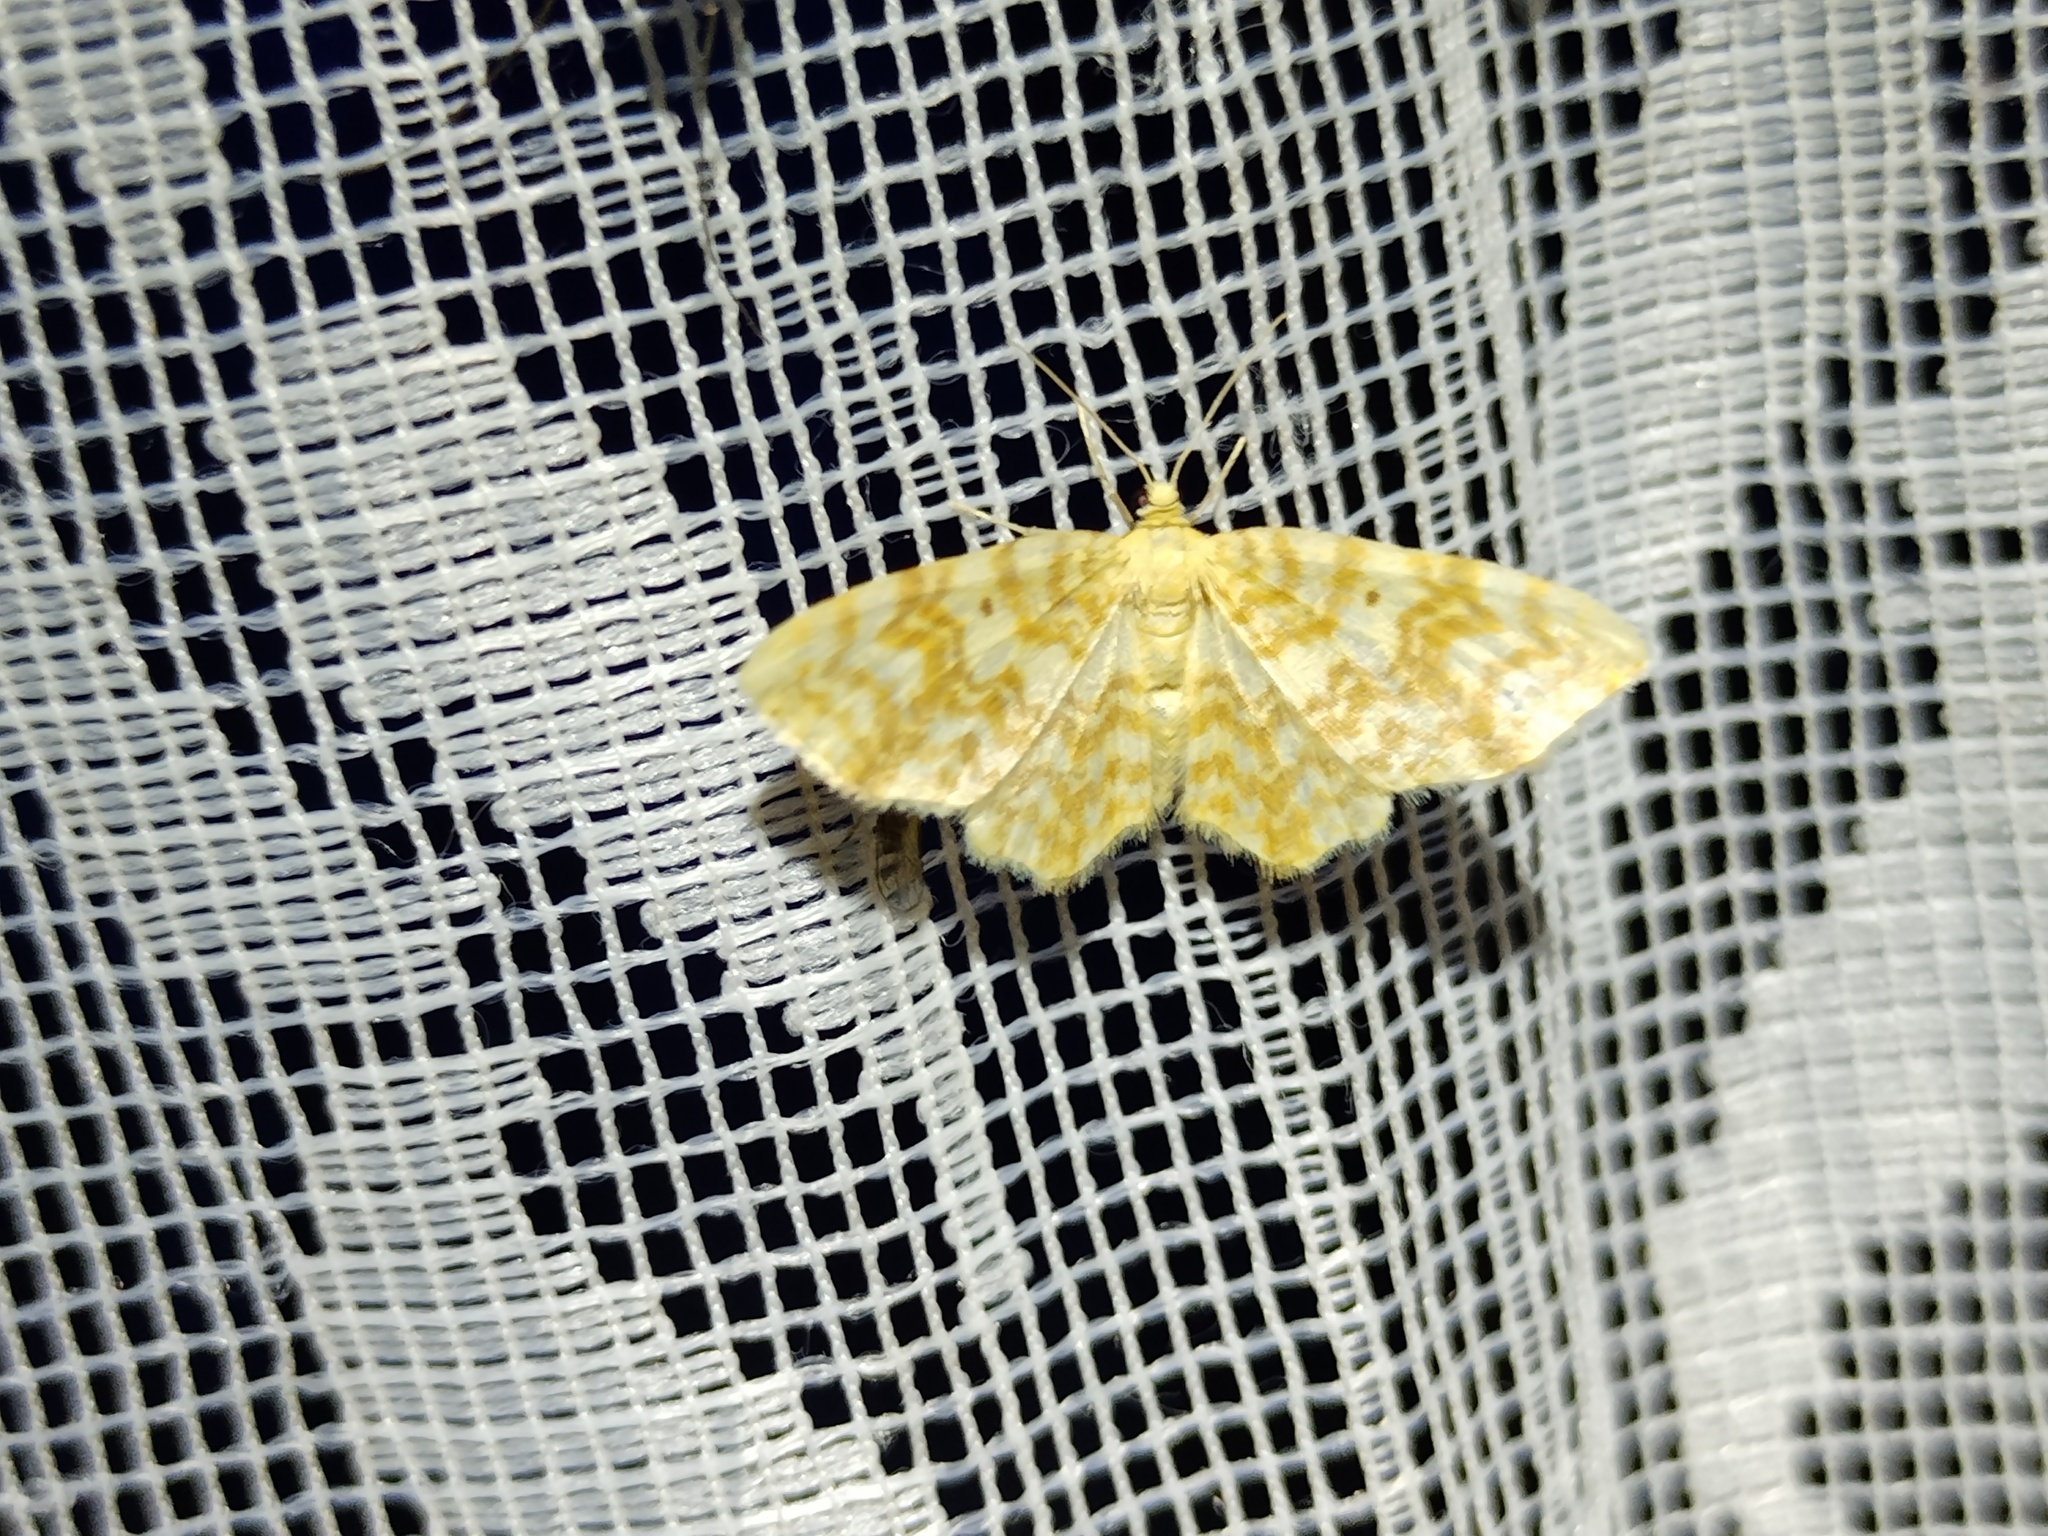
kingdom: Animalia
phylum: Arthropoda
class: Insecta
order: Lepidoptera
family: Geometridae
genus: Hydrelia
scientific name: Hydrelia flammeolaria
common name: Small yellow wave
